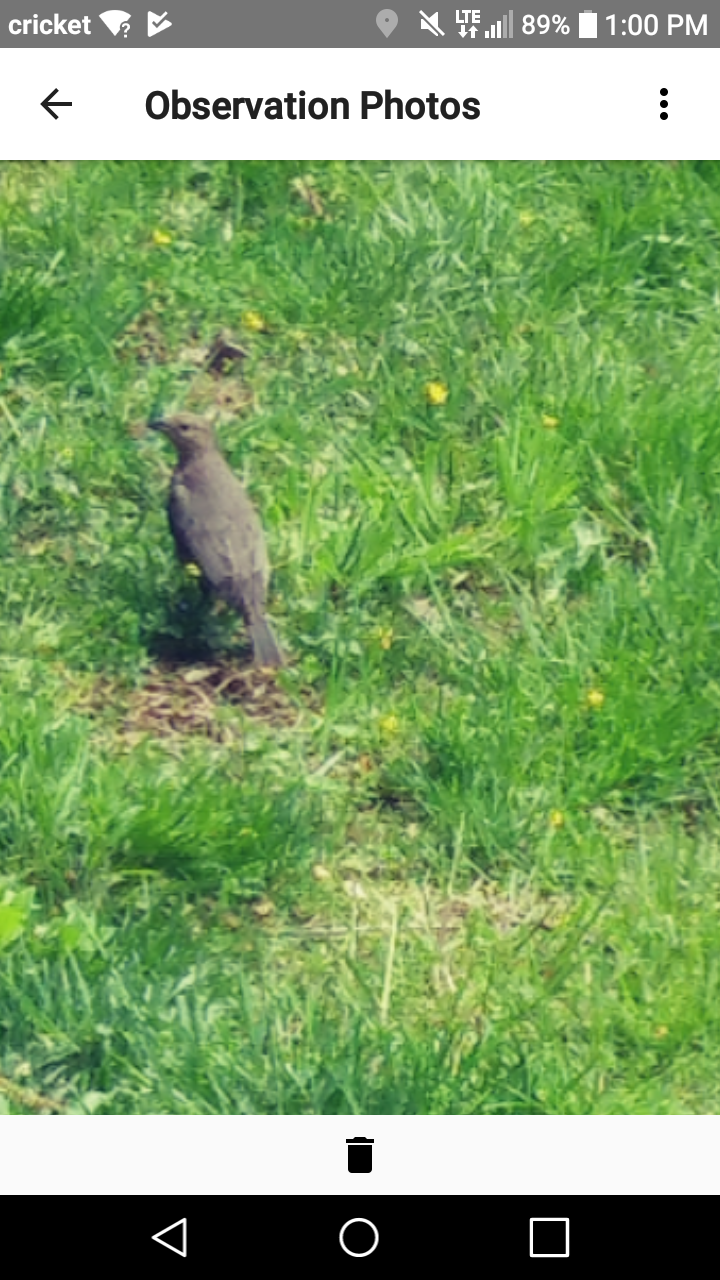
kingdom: Animalia
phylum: Chordata
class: Aves
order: Passeriformes
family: Icteridae
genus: Molothrus
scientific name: Molothrus ater
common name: Brown-headed cowbird
